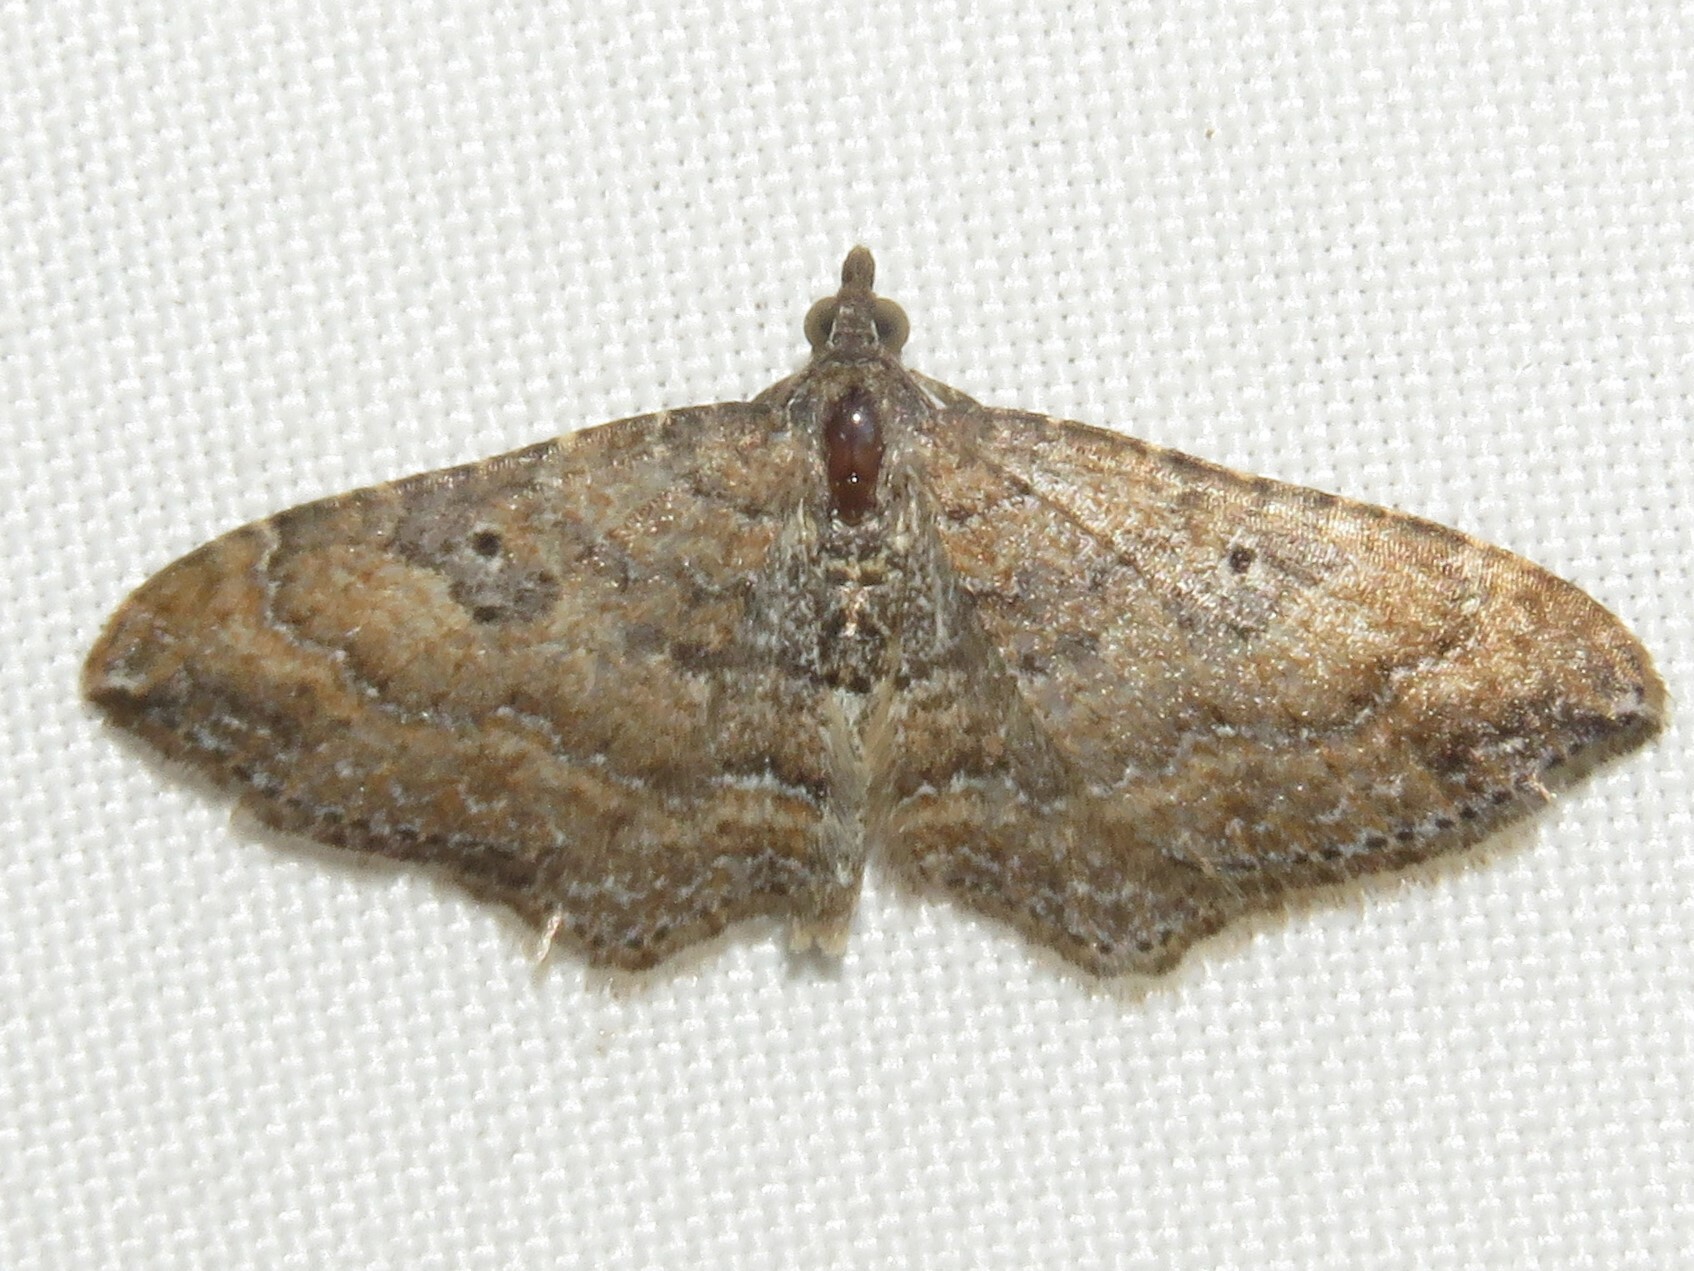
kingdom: Animalia
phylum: Arthropoda
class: Insecta
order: Lepidoptera
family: Geometridae
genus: Orthonama
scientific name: Orthonama obstipata
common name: The gem
